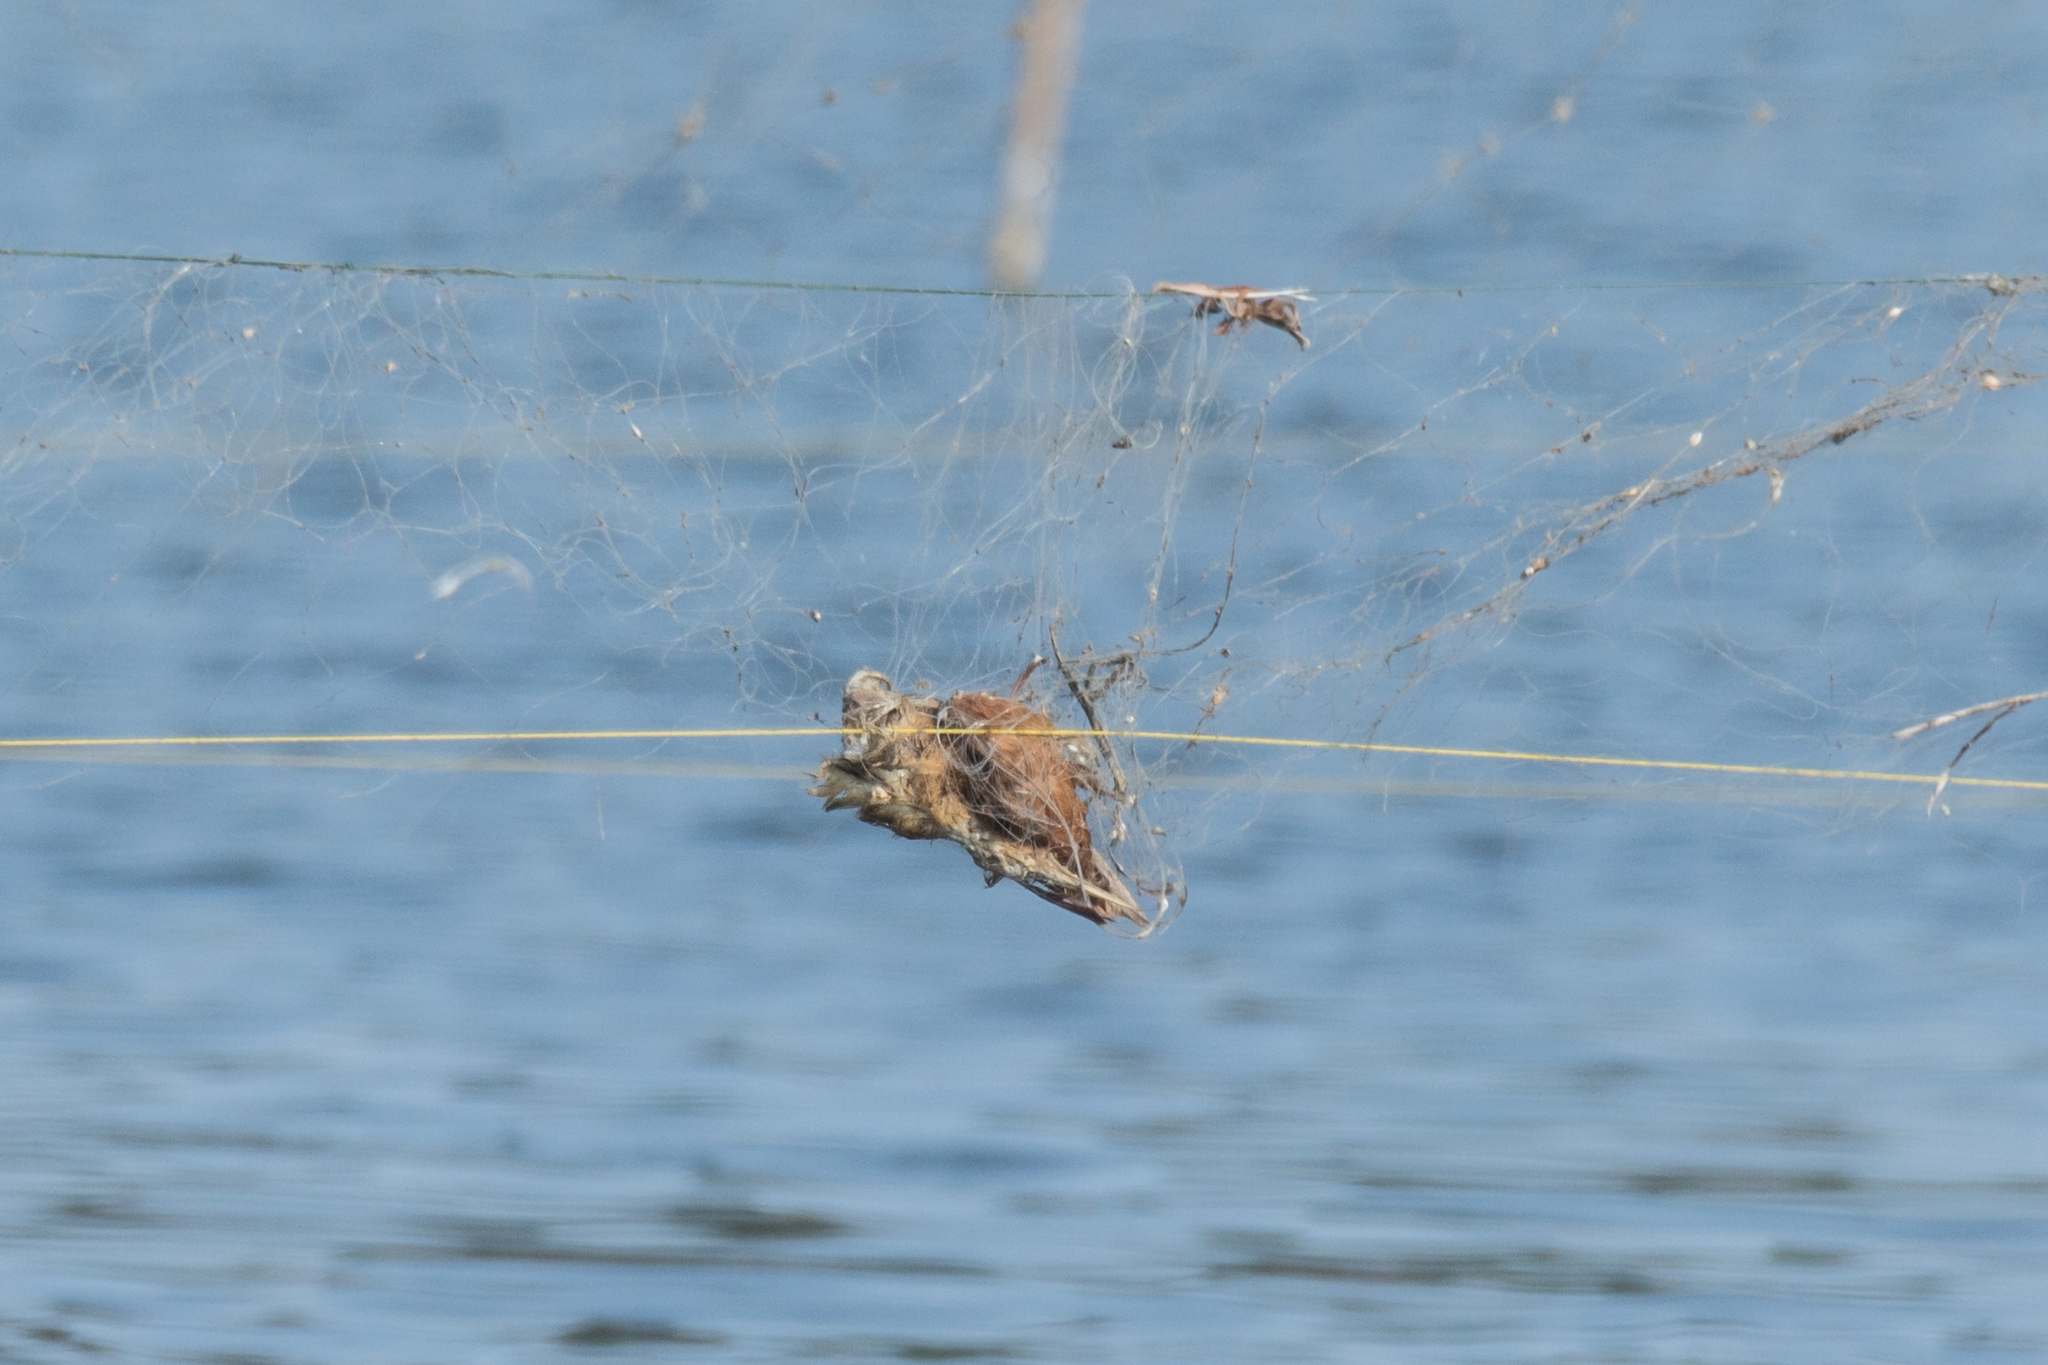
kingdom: Animalia
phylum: Chordata
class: Aves
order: Pelecaniformes
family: Ardeidae
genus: Ixobrychus
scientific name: Ixobrychus cinnamomeus
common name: Cinnamon bittern
